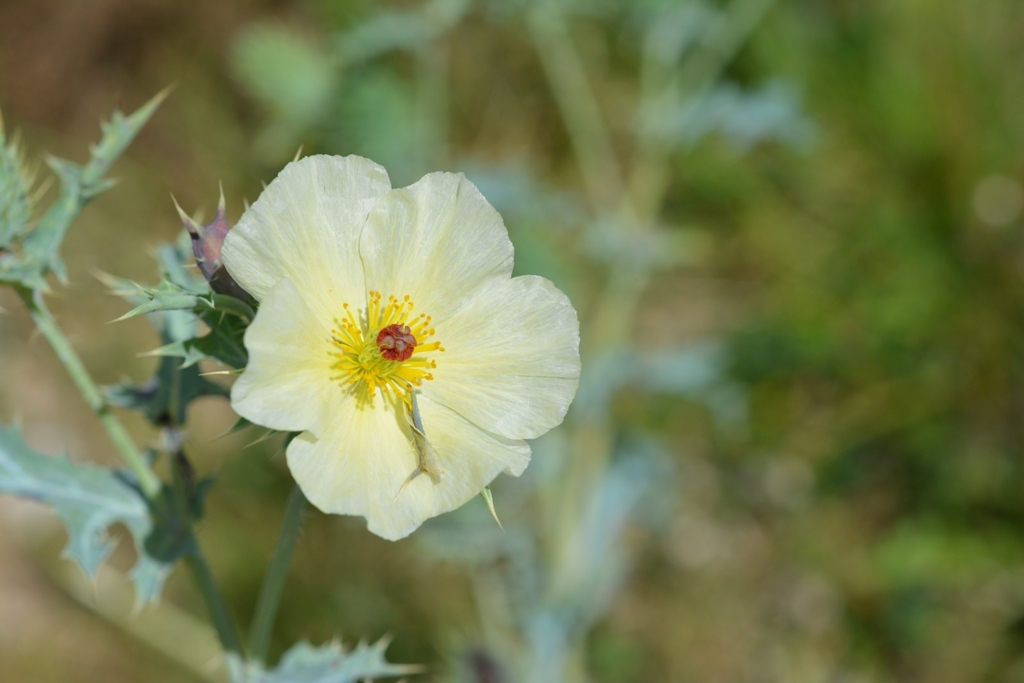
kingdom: Plantae
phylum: Tracheophyta
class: Magnoliopsida
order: Ranunculales
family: Papaveraceae
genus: Argemone
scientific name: Argemone ochroleuca
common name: White-flower mexican-poppy
